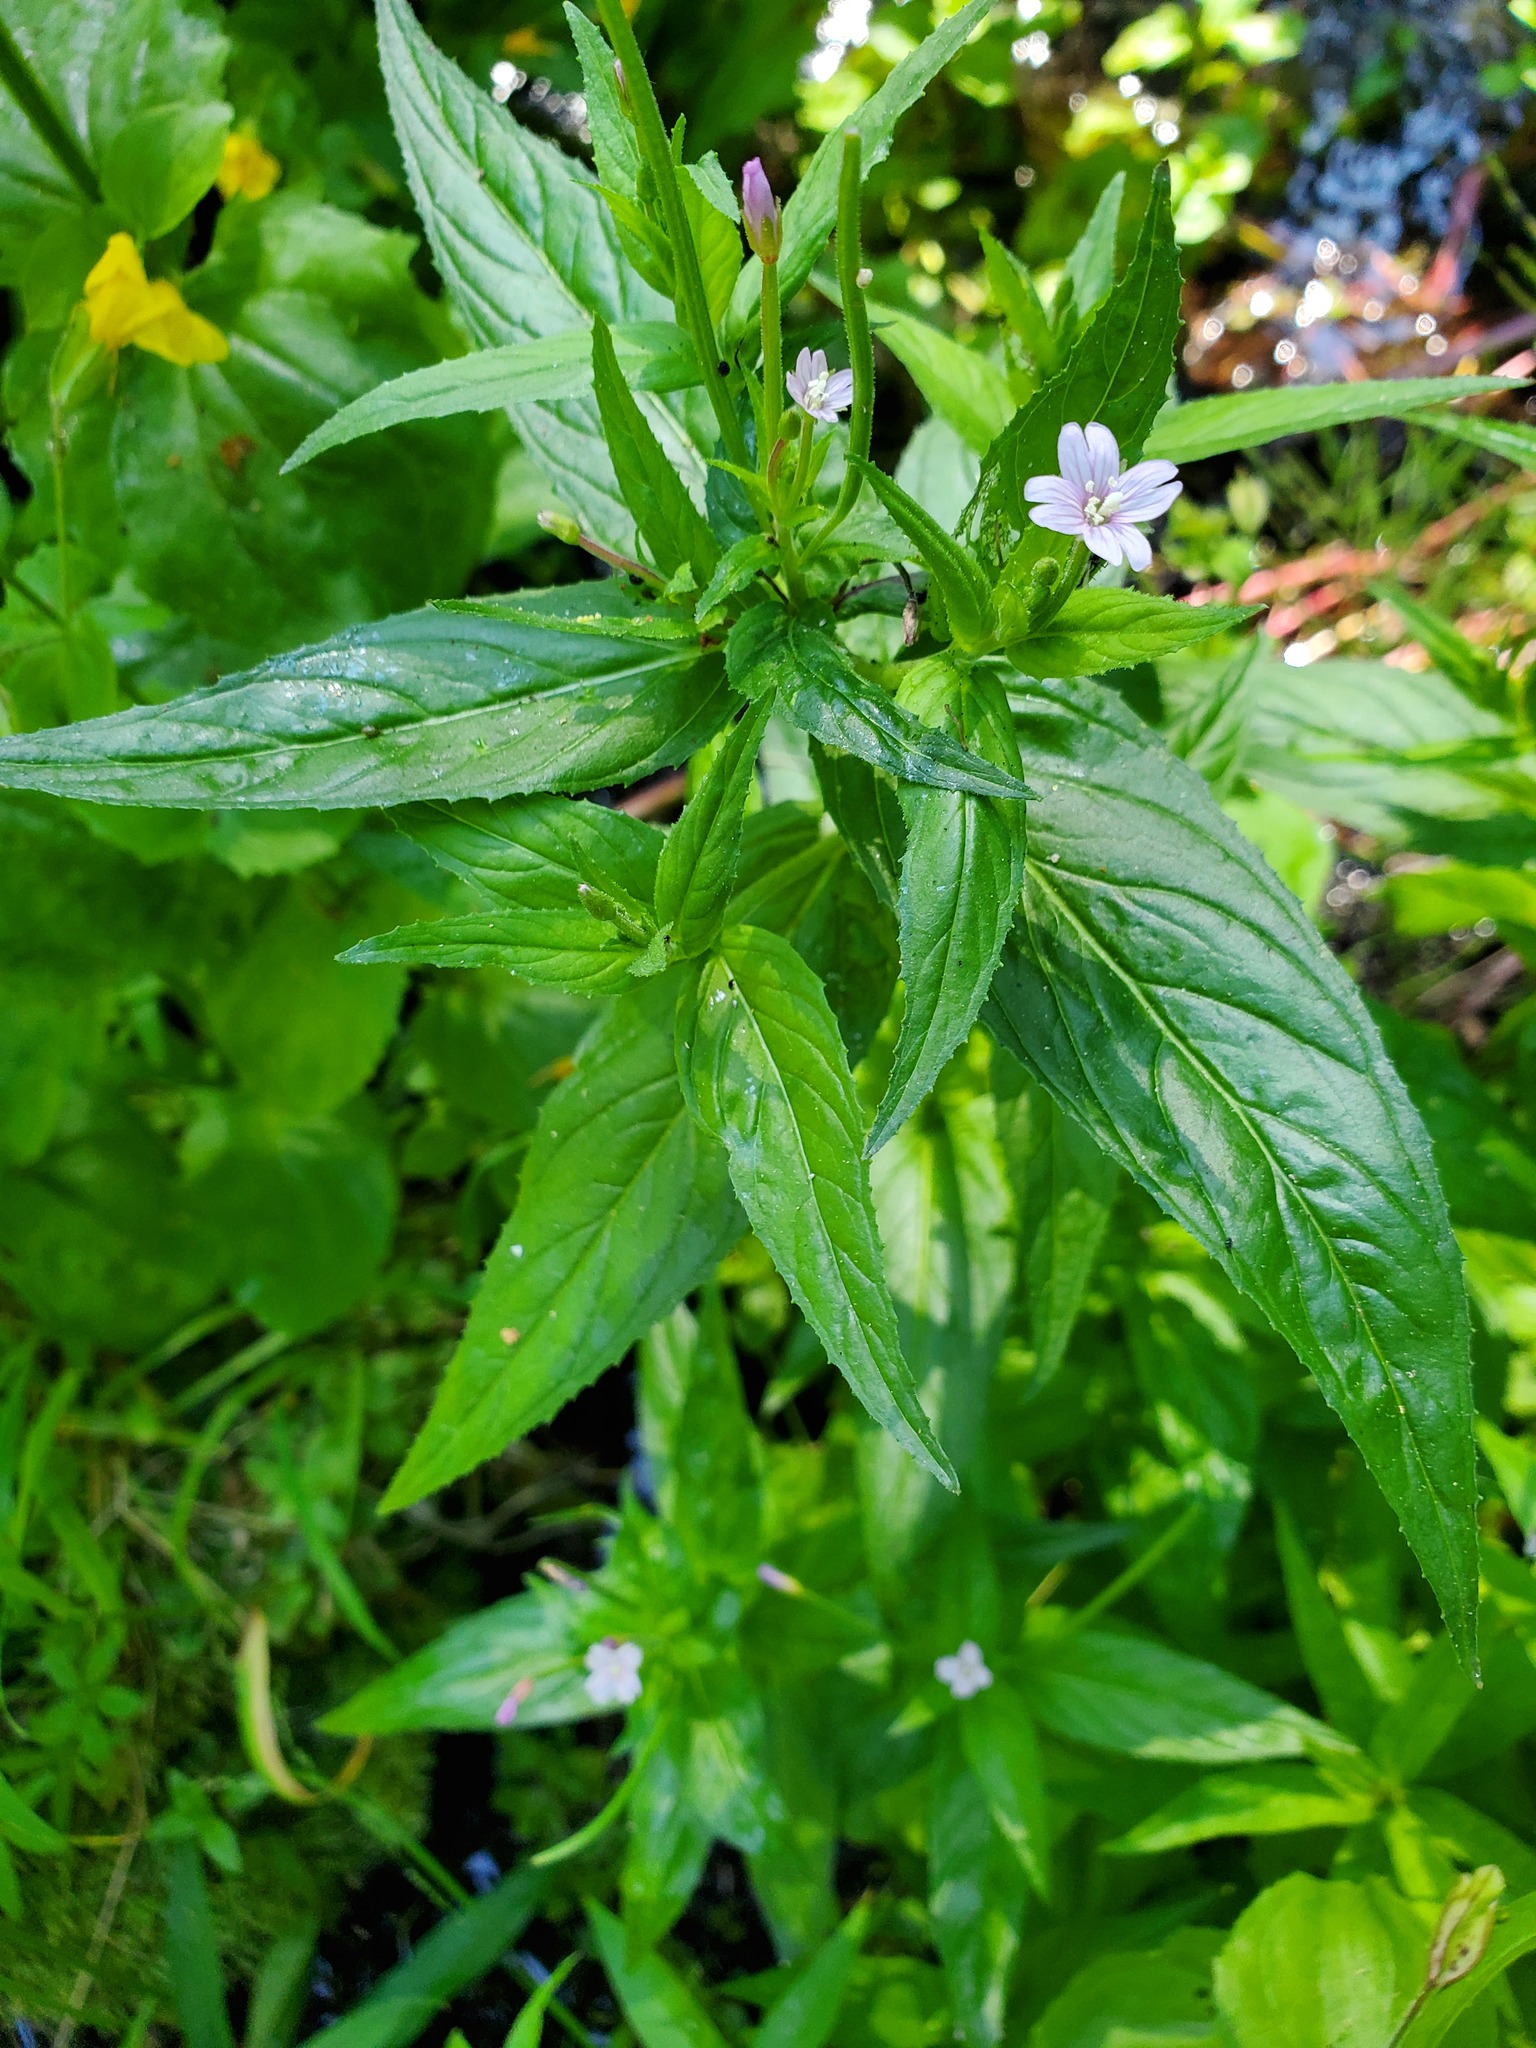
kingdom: Plantae
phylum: Tracheophyta
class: Magnoliopsida
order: Myrtales
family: Onagraceae
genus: Epilobium
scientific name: Epilobium ciliatum
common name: American willowherb
